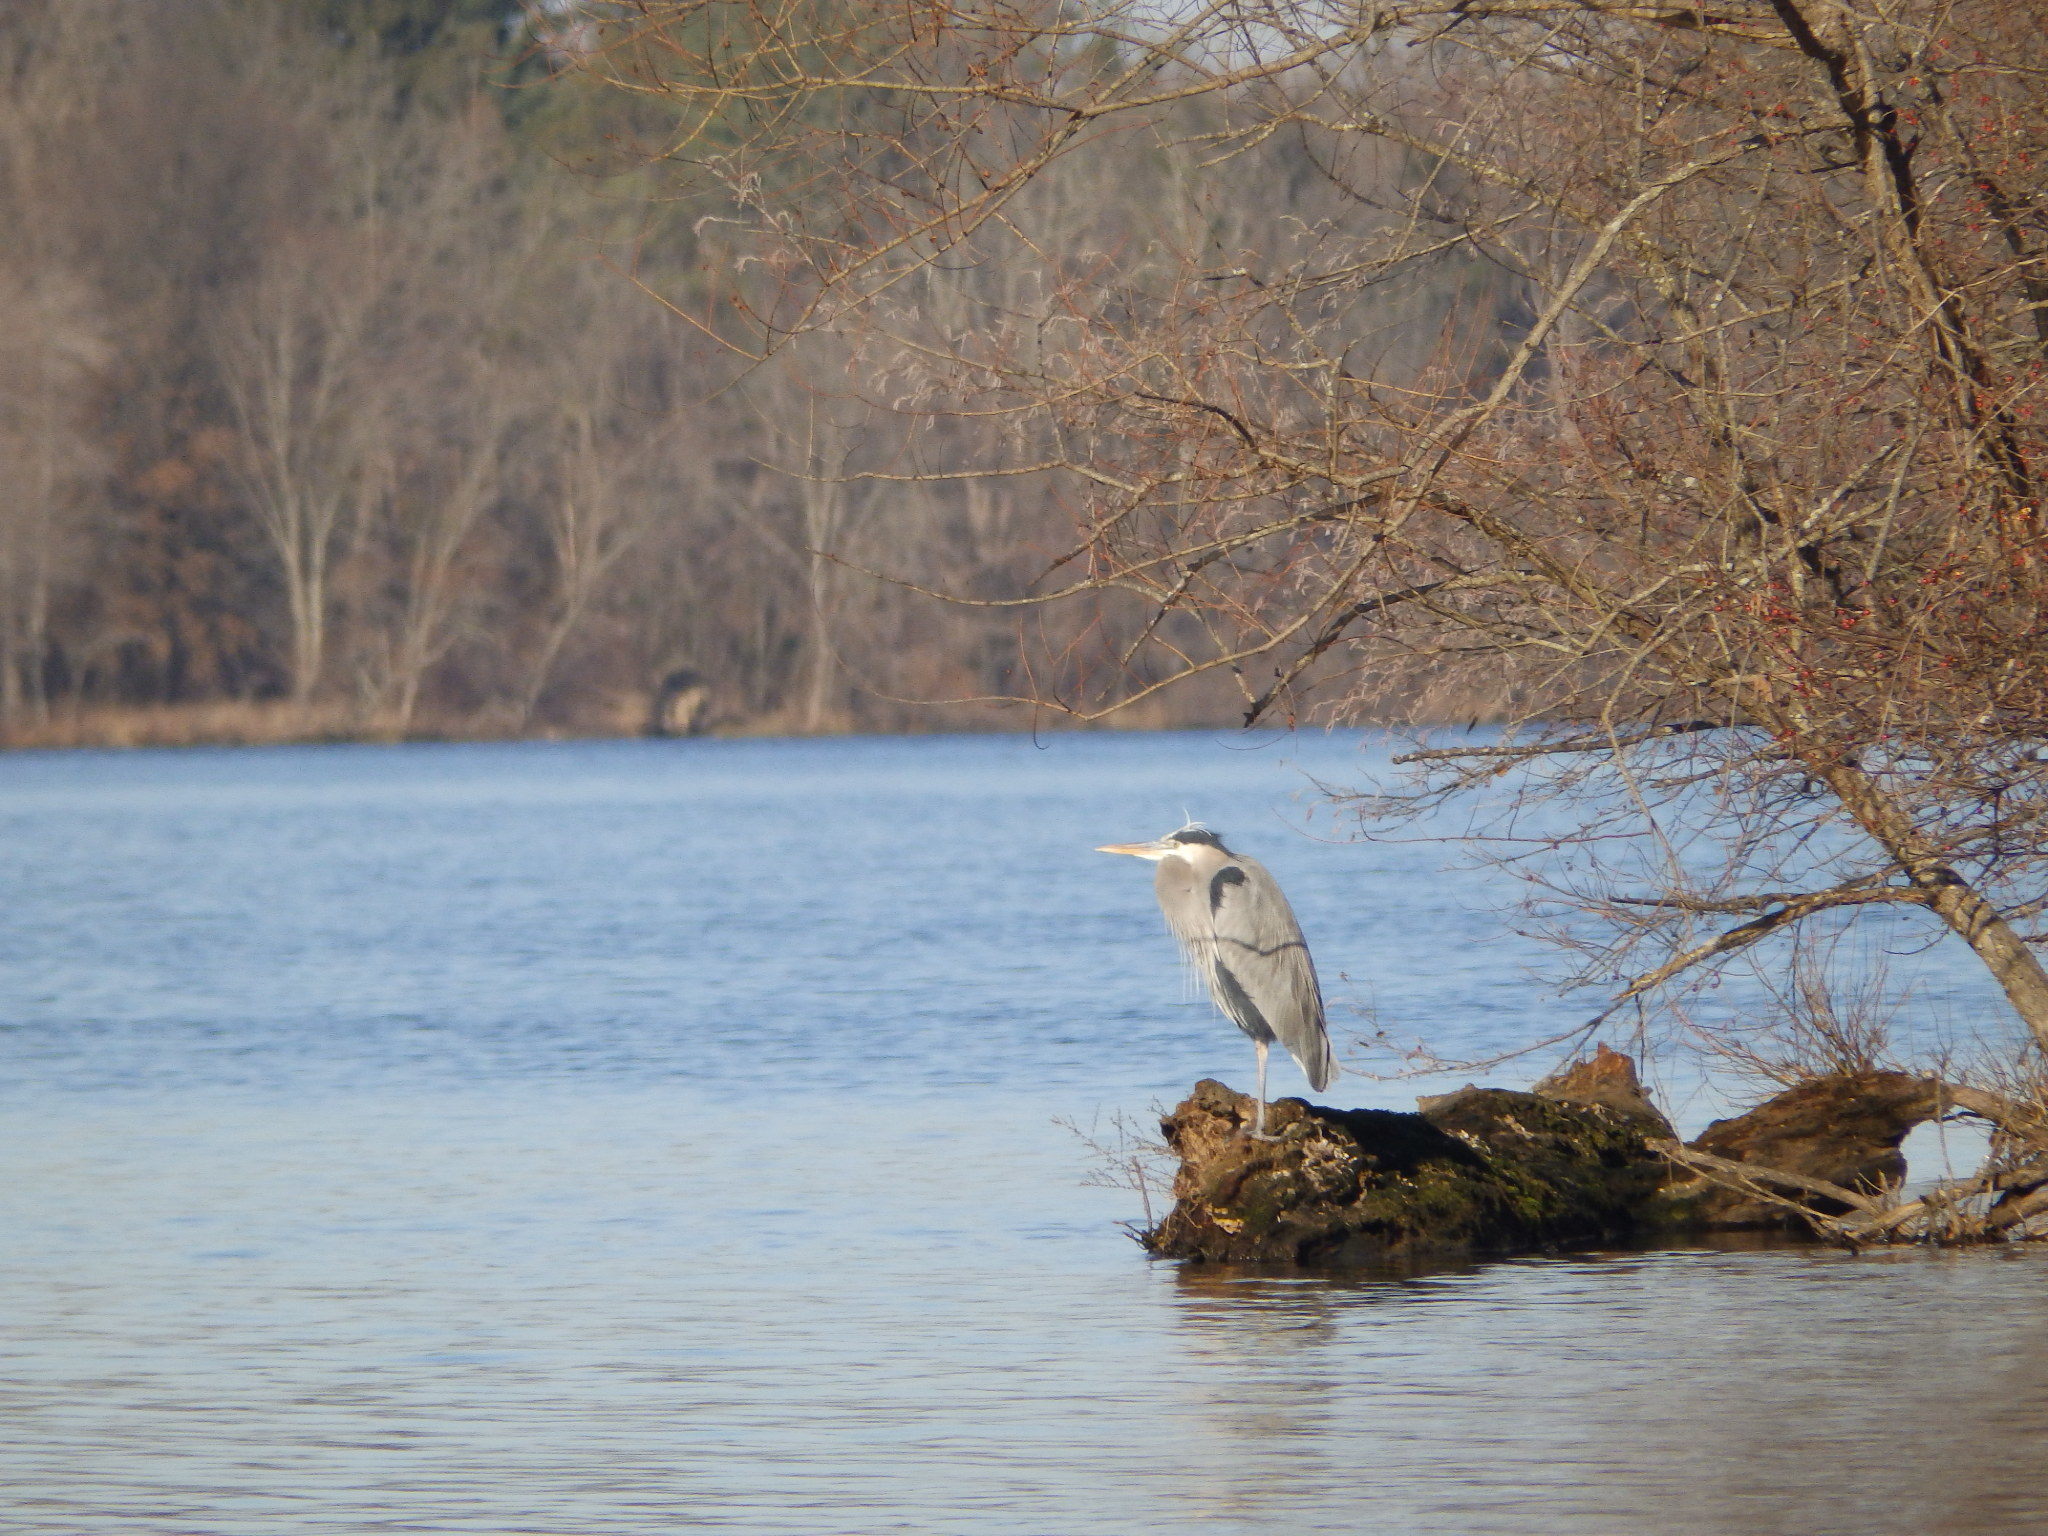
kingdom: Animalia
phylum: Chordata
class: Aves
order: Pelecaniformes
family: Ardeidae
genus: Ardea
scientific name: Ardea herodias
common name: Great blue heron
